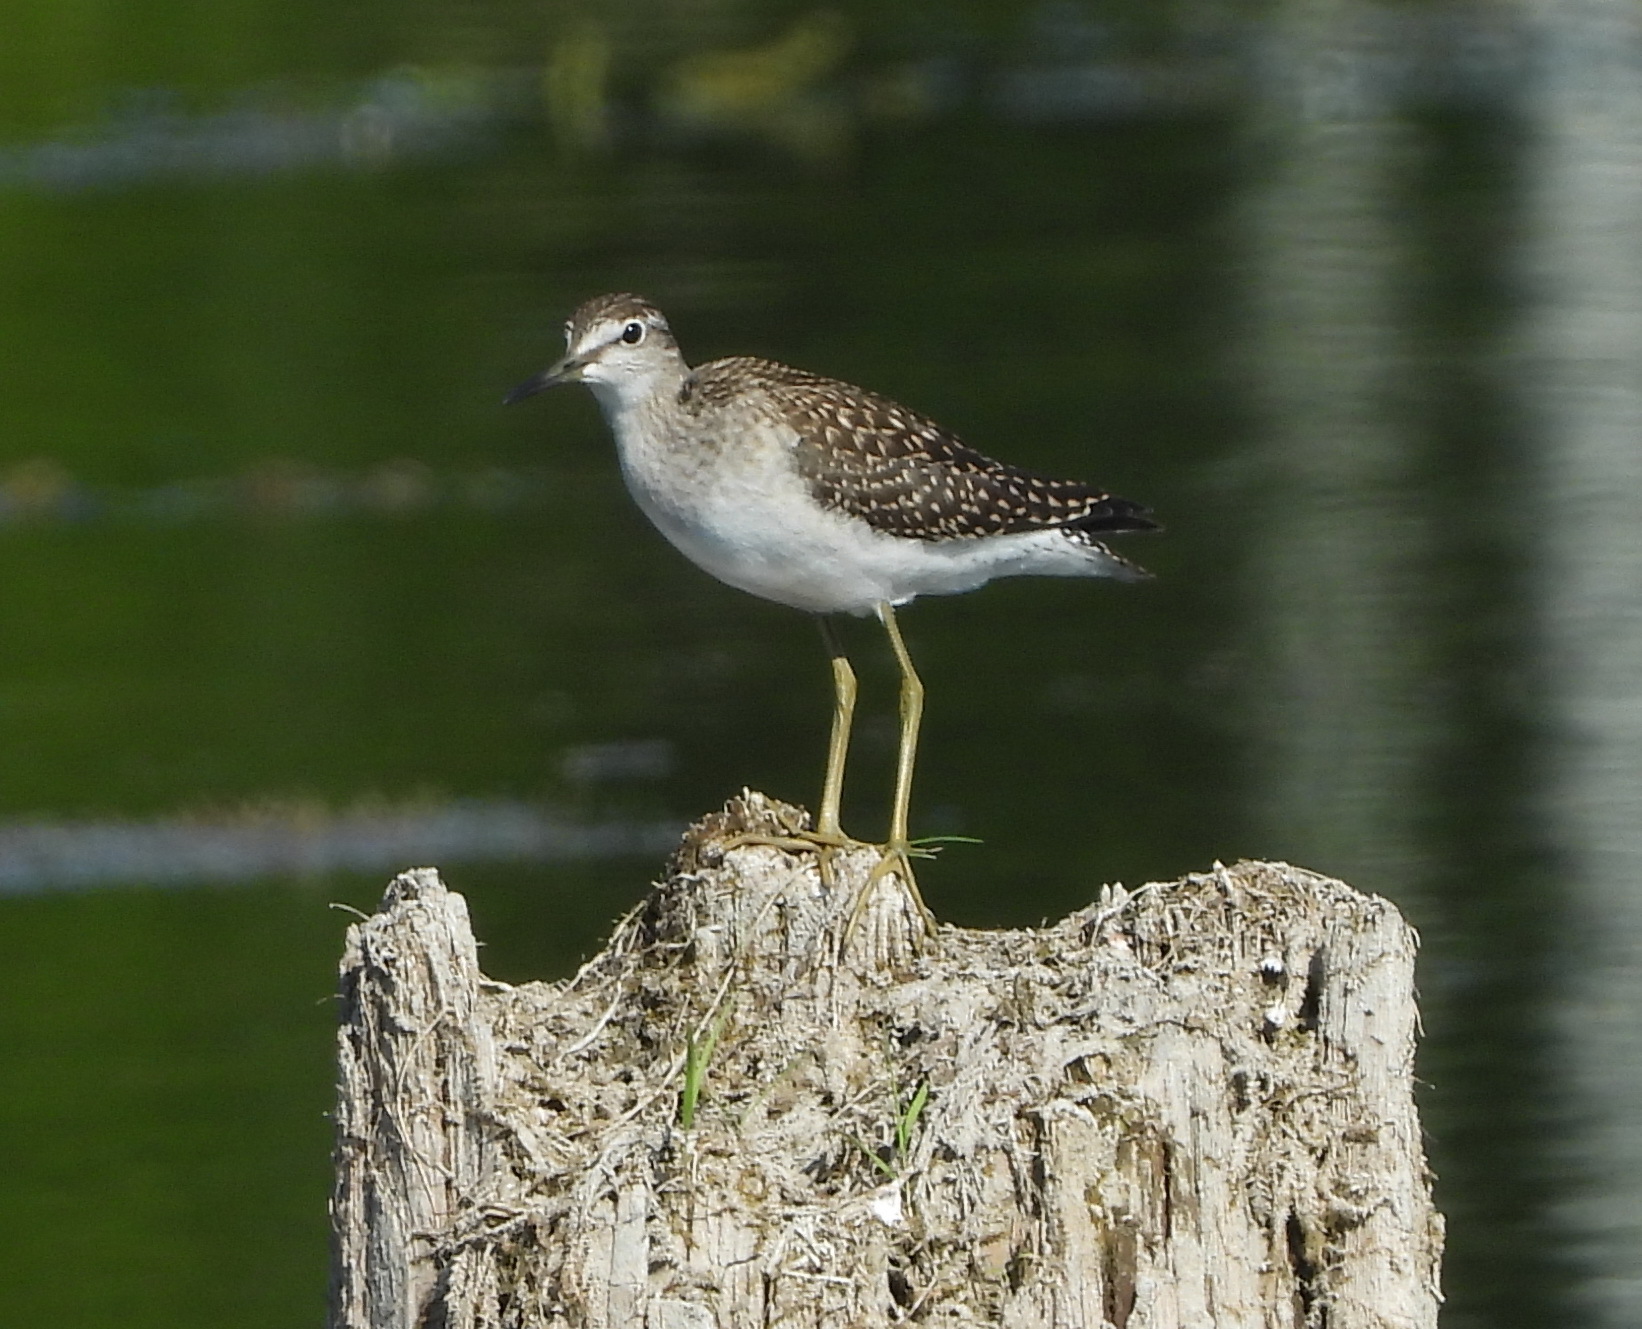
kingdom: Animalia
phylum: Chordata
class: Aves
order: Charadriiformes
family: Scolopacidae
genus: Tringa
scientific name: Tringa glareola
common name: Wood sandpiper
